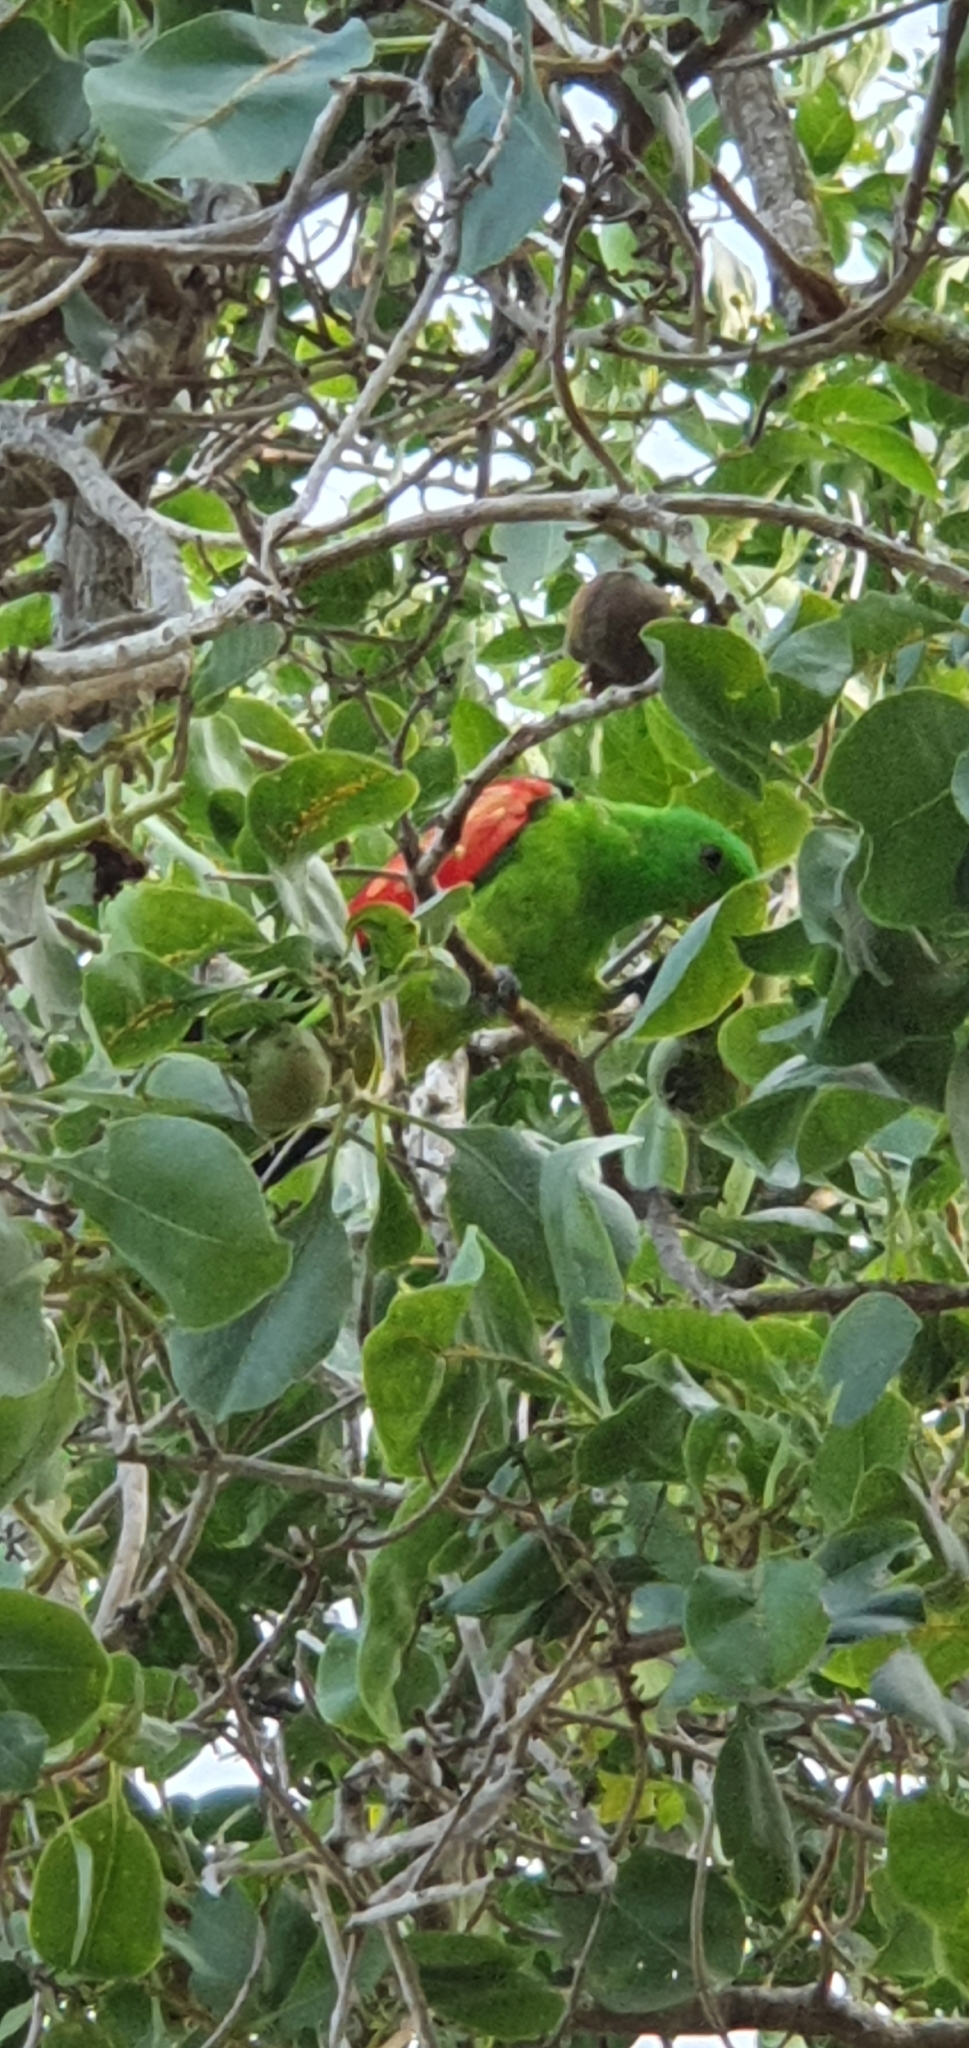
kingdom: Animalia
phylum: Chordata
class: Aves
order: Psittaciformes
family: Psittacidae
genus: Aprosmictus
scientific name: Aprosmictus erythropterus
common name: Red-winged parrot
